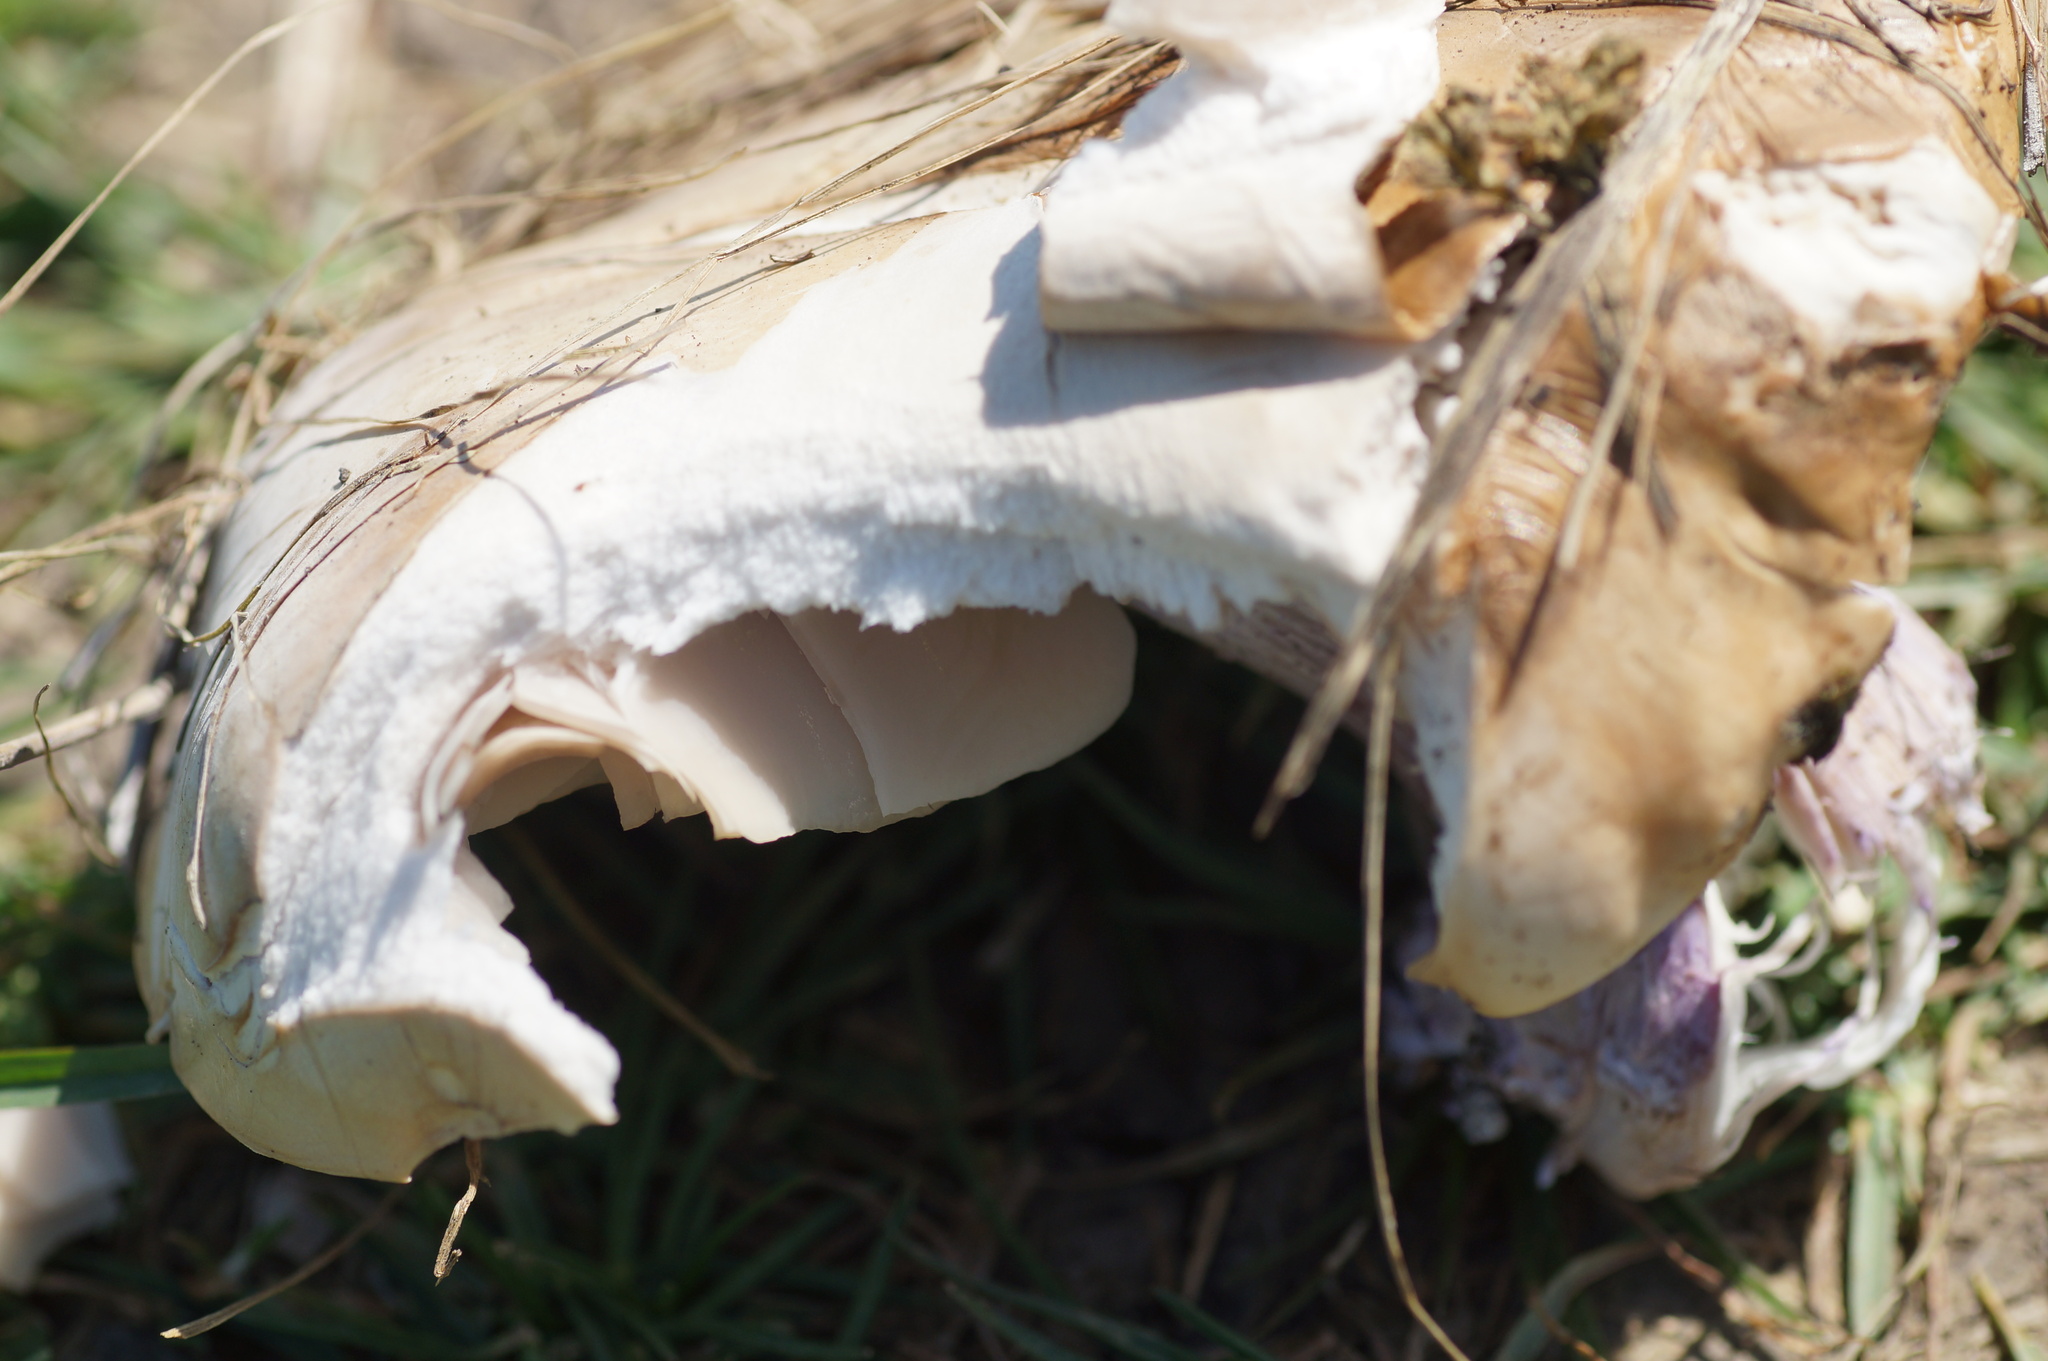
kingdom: Fungi
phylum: Basidiomycota
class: Agaricomycetes
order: Agaricales
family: Omphalotaceae
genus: Collybiopsis
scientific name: Collybiopsis peronata
